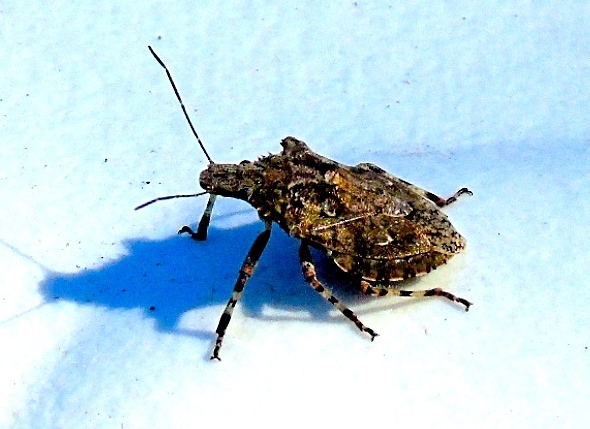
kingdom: Animalia
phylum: Arthropoda
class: Insecta
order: Hemiptera
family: Pentatomidae
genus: Brochymena
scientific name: Brochymena
